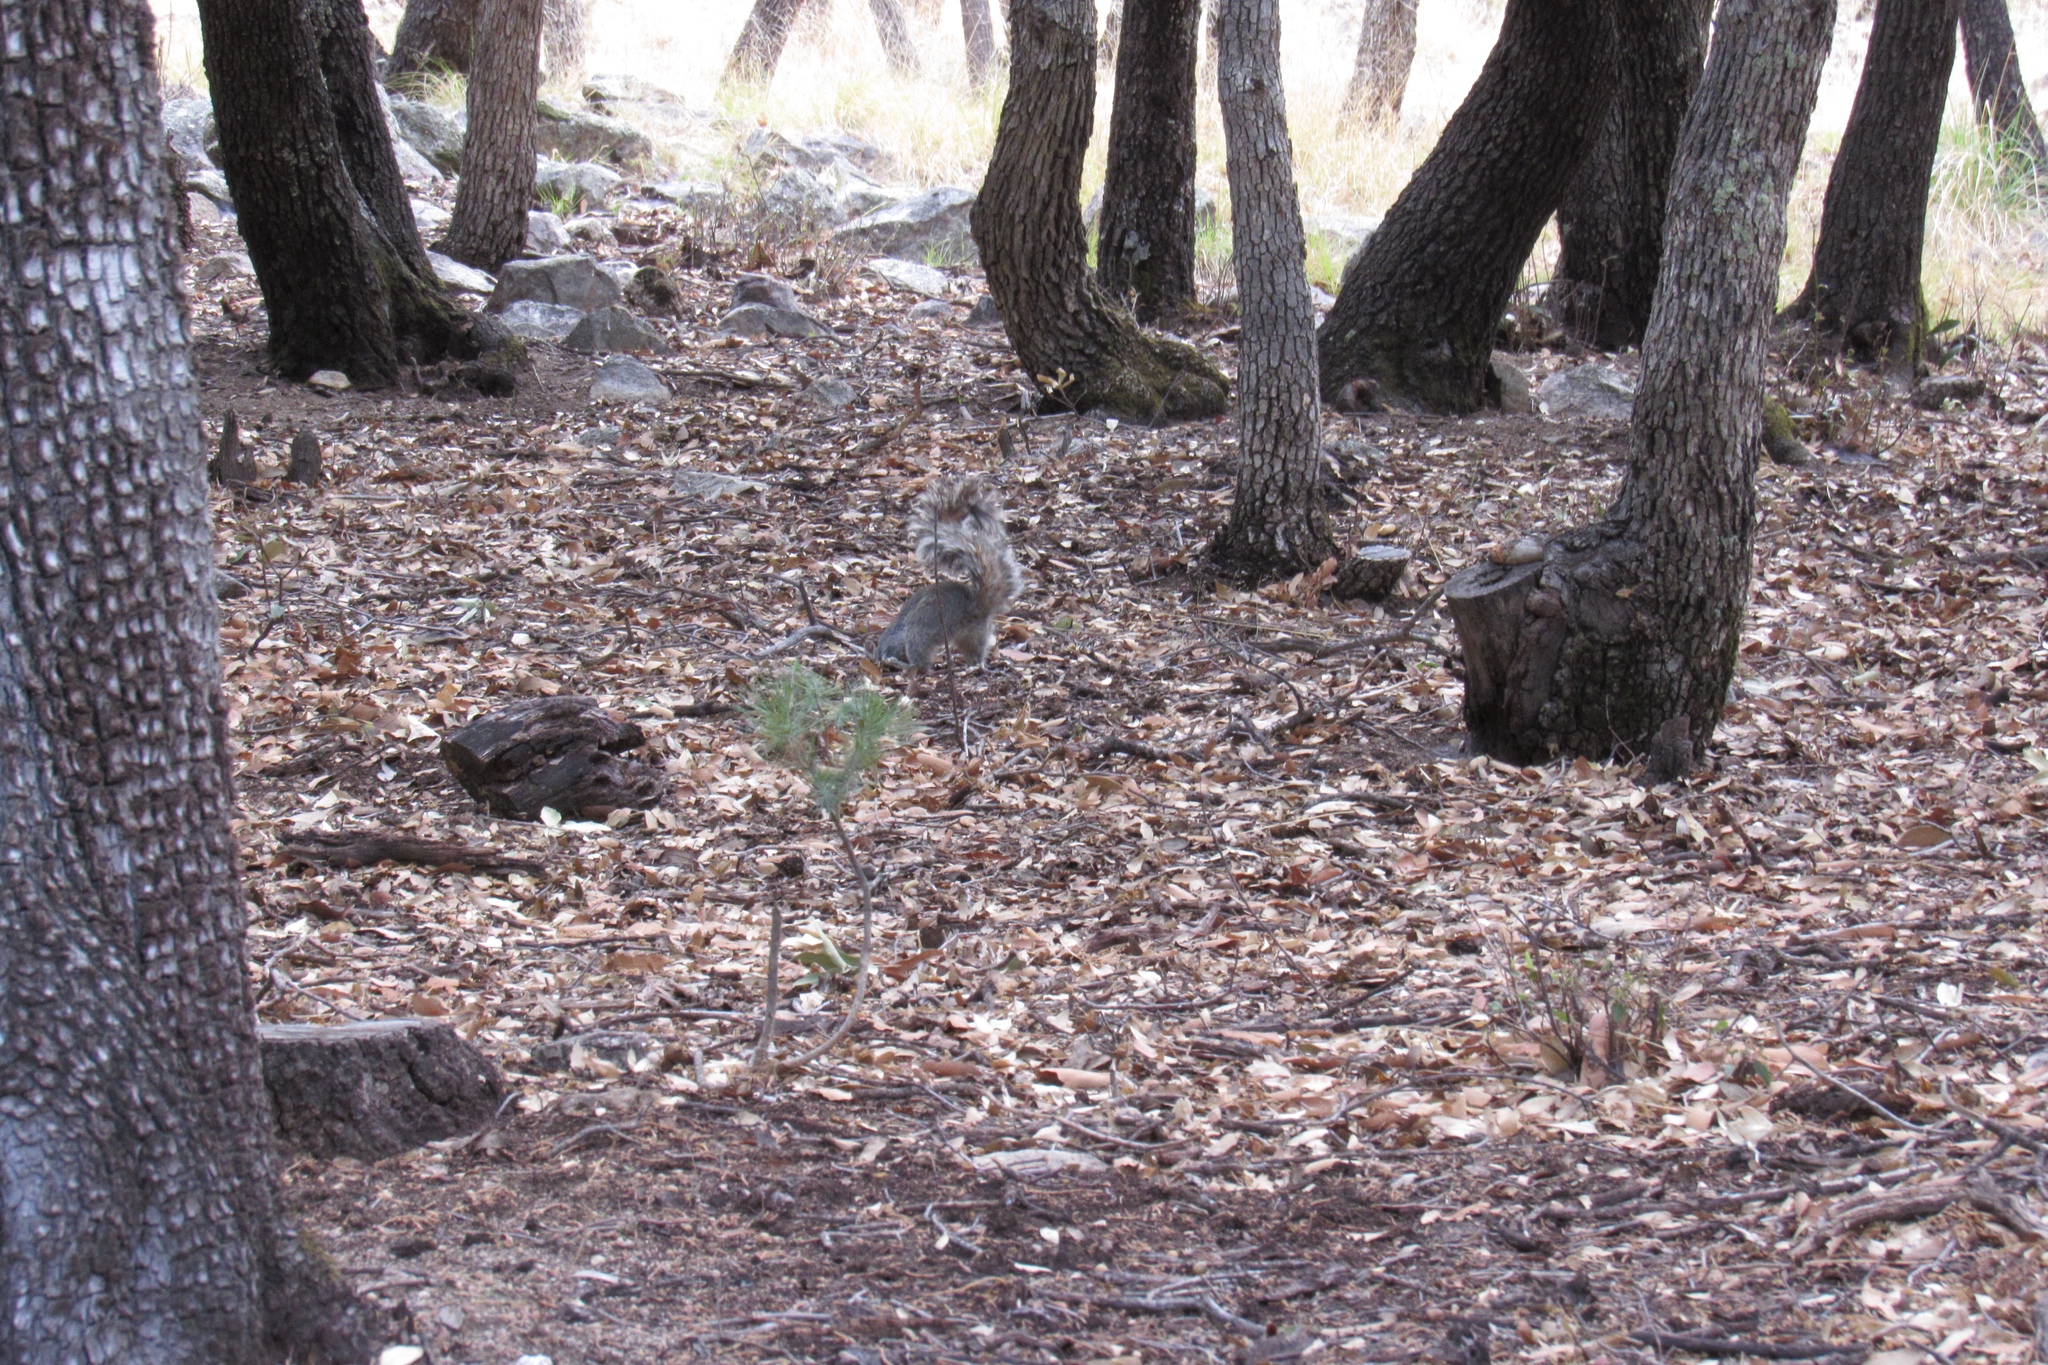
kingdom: Animalia
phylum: Chordata
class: Mammalia
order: Rodentia
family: Sciuridae
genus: Sciurus
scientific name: Sciurus arizonensis
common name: Arizona gray squirrel
